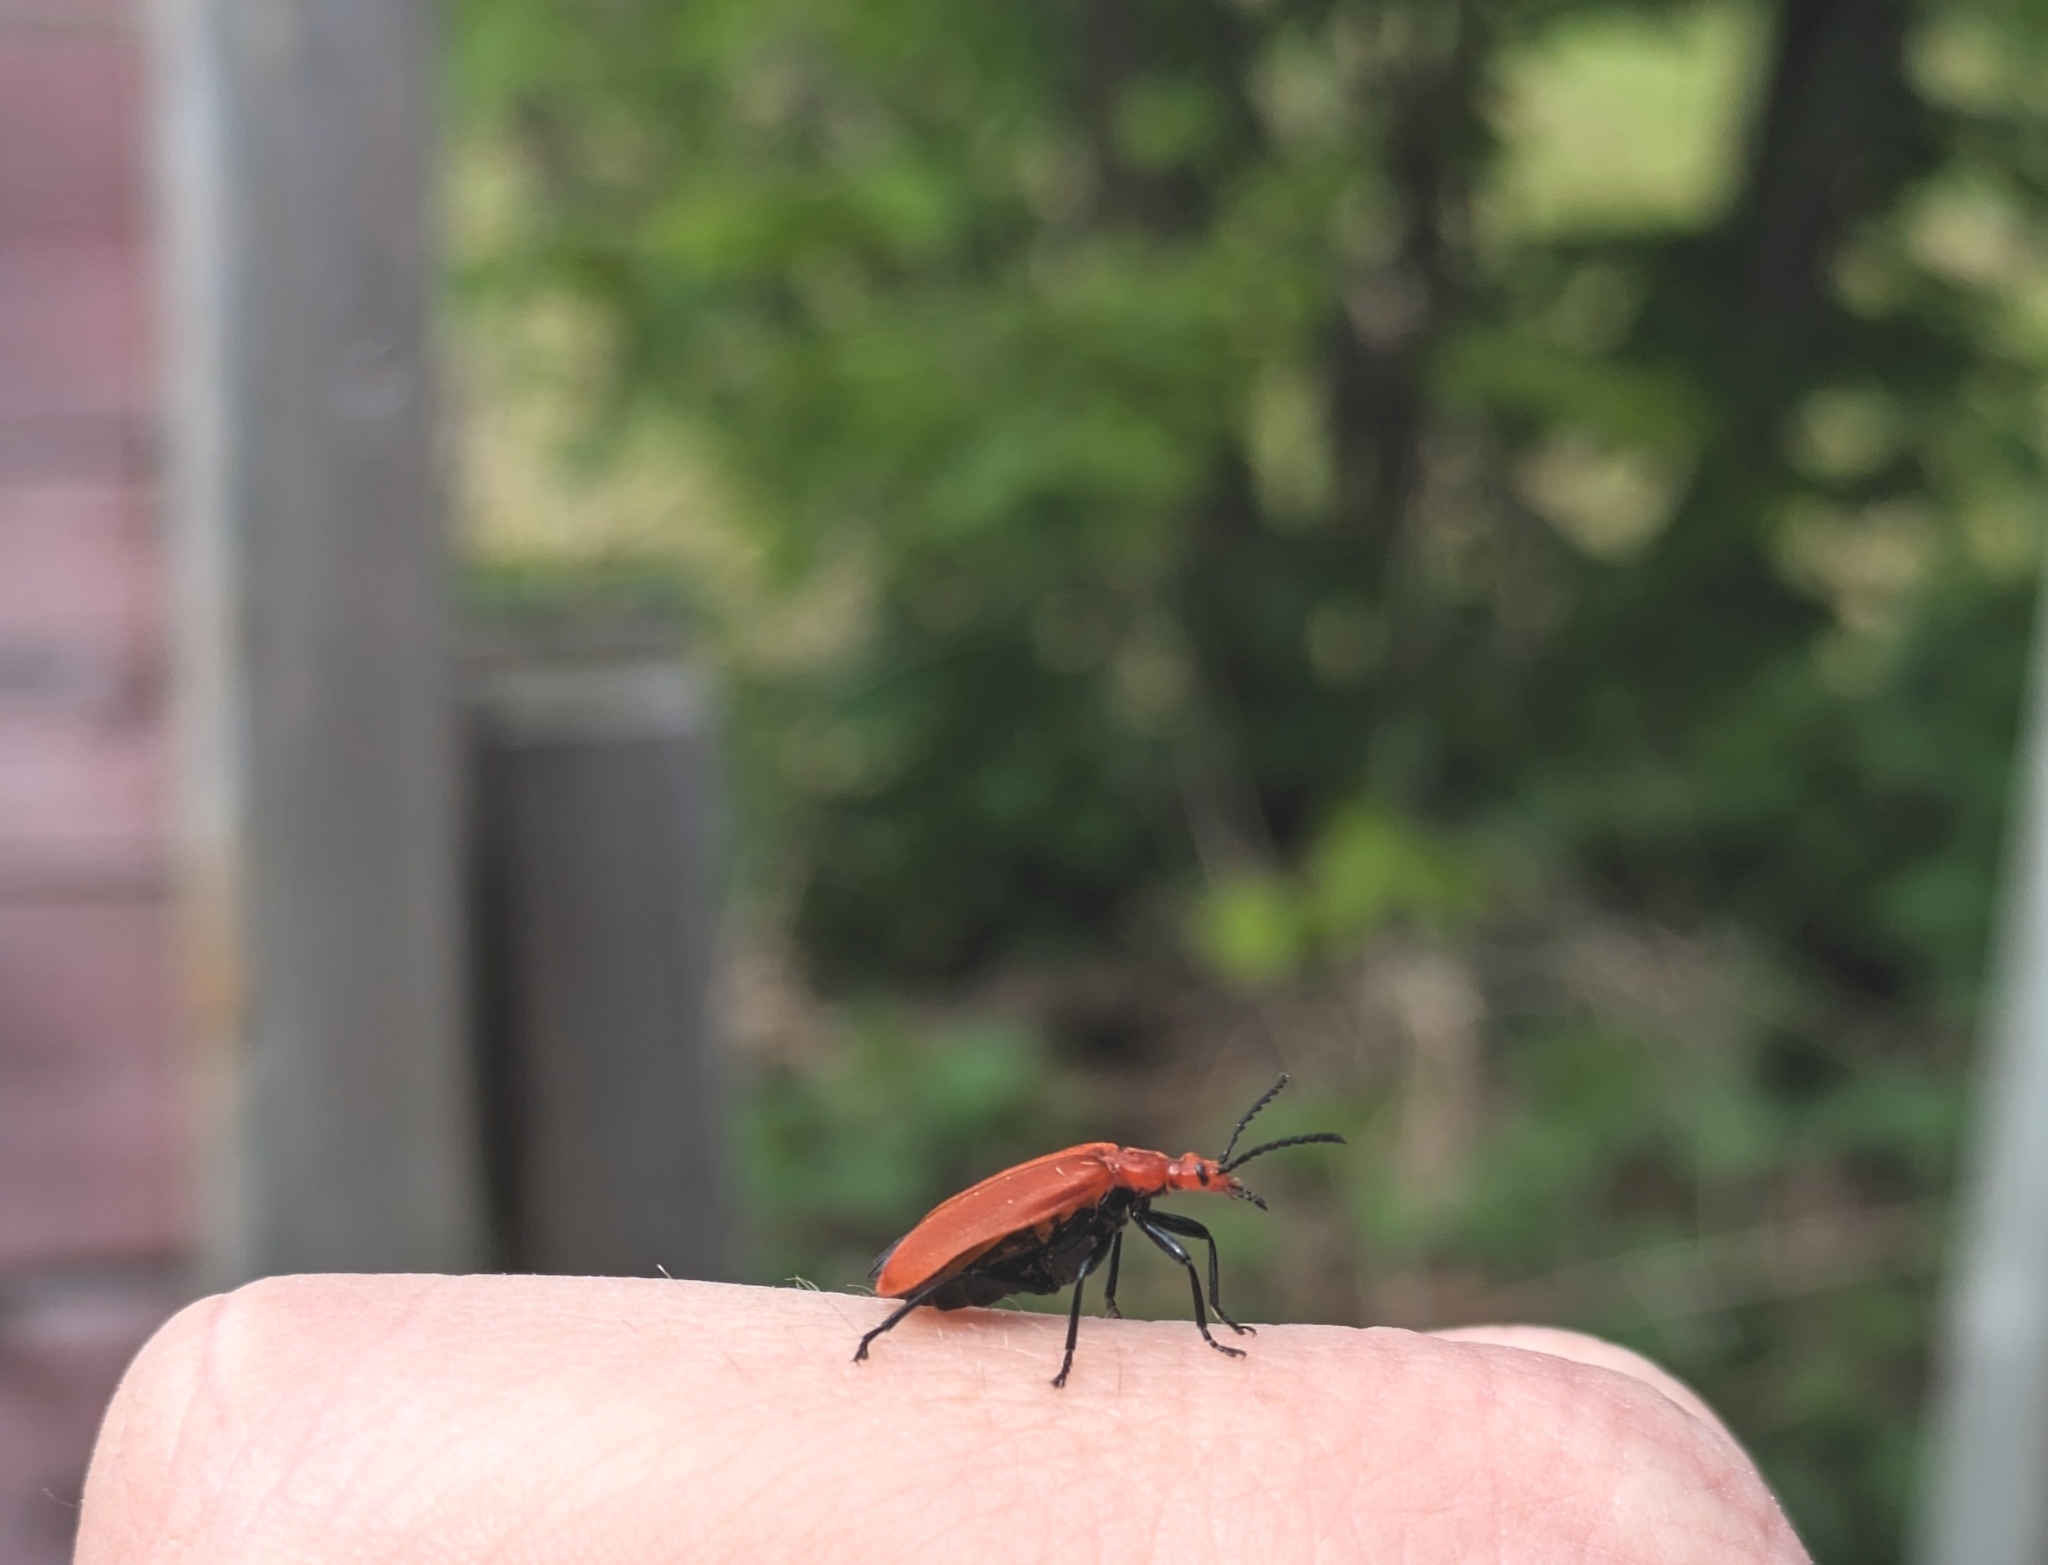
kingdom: Animalia
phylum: Arthropoda
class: Insecta
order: Coleoptera
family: Pyrochroidae
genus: Pyrochroa
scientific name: Pyrochroa serraticornis
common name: Red-headed cardinal beetle
